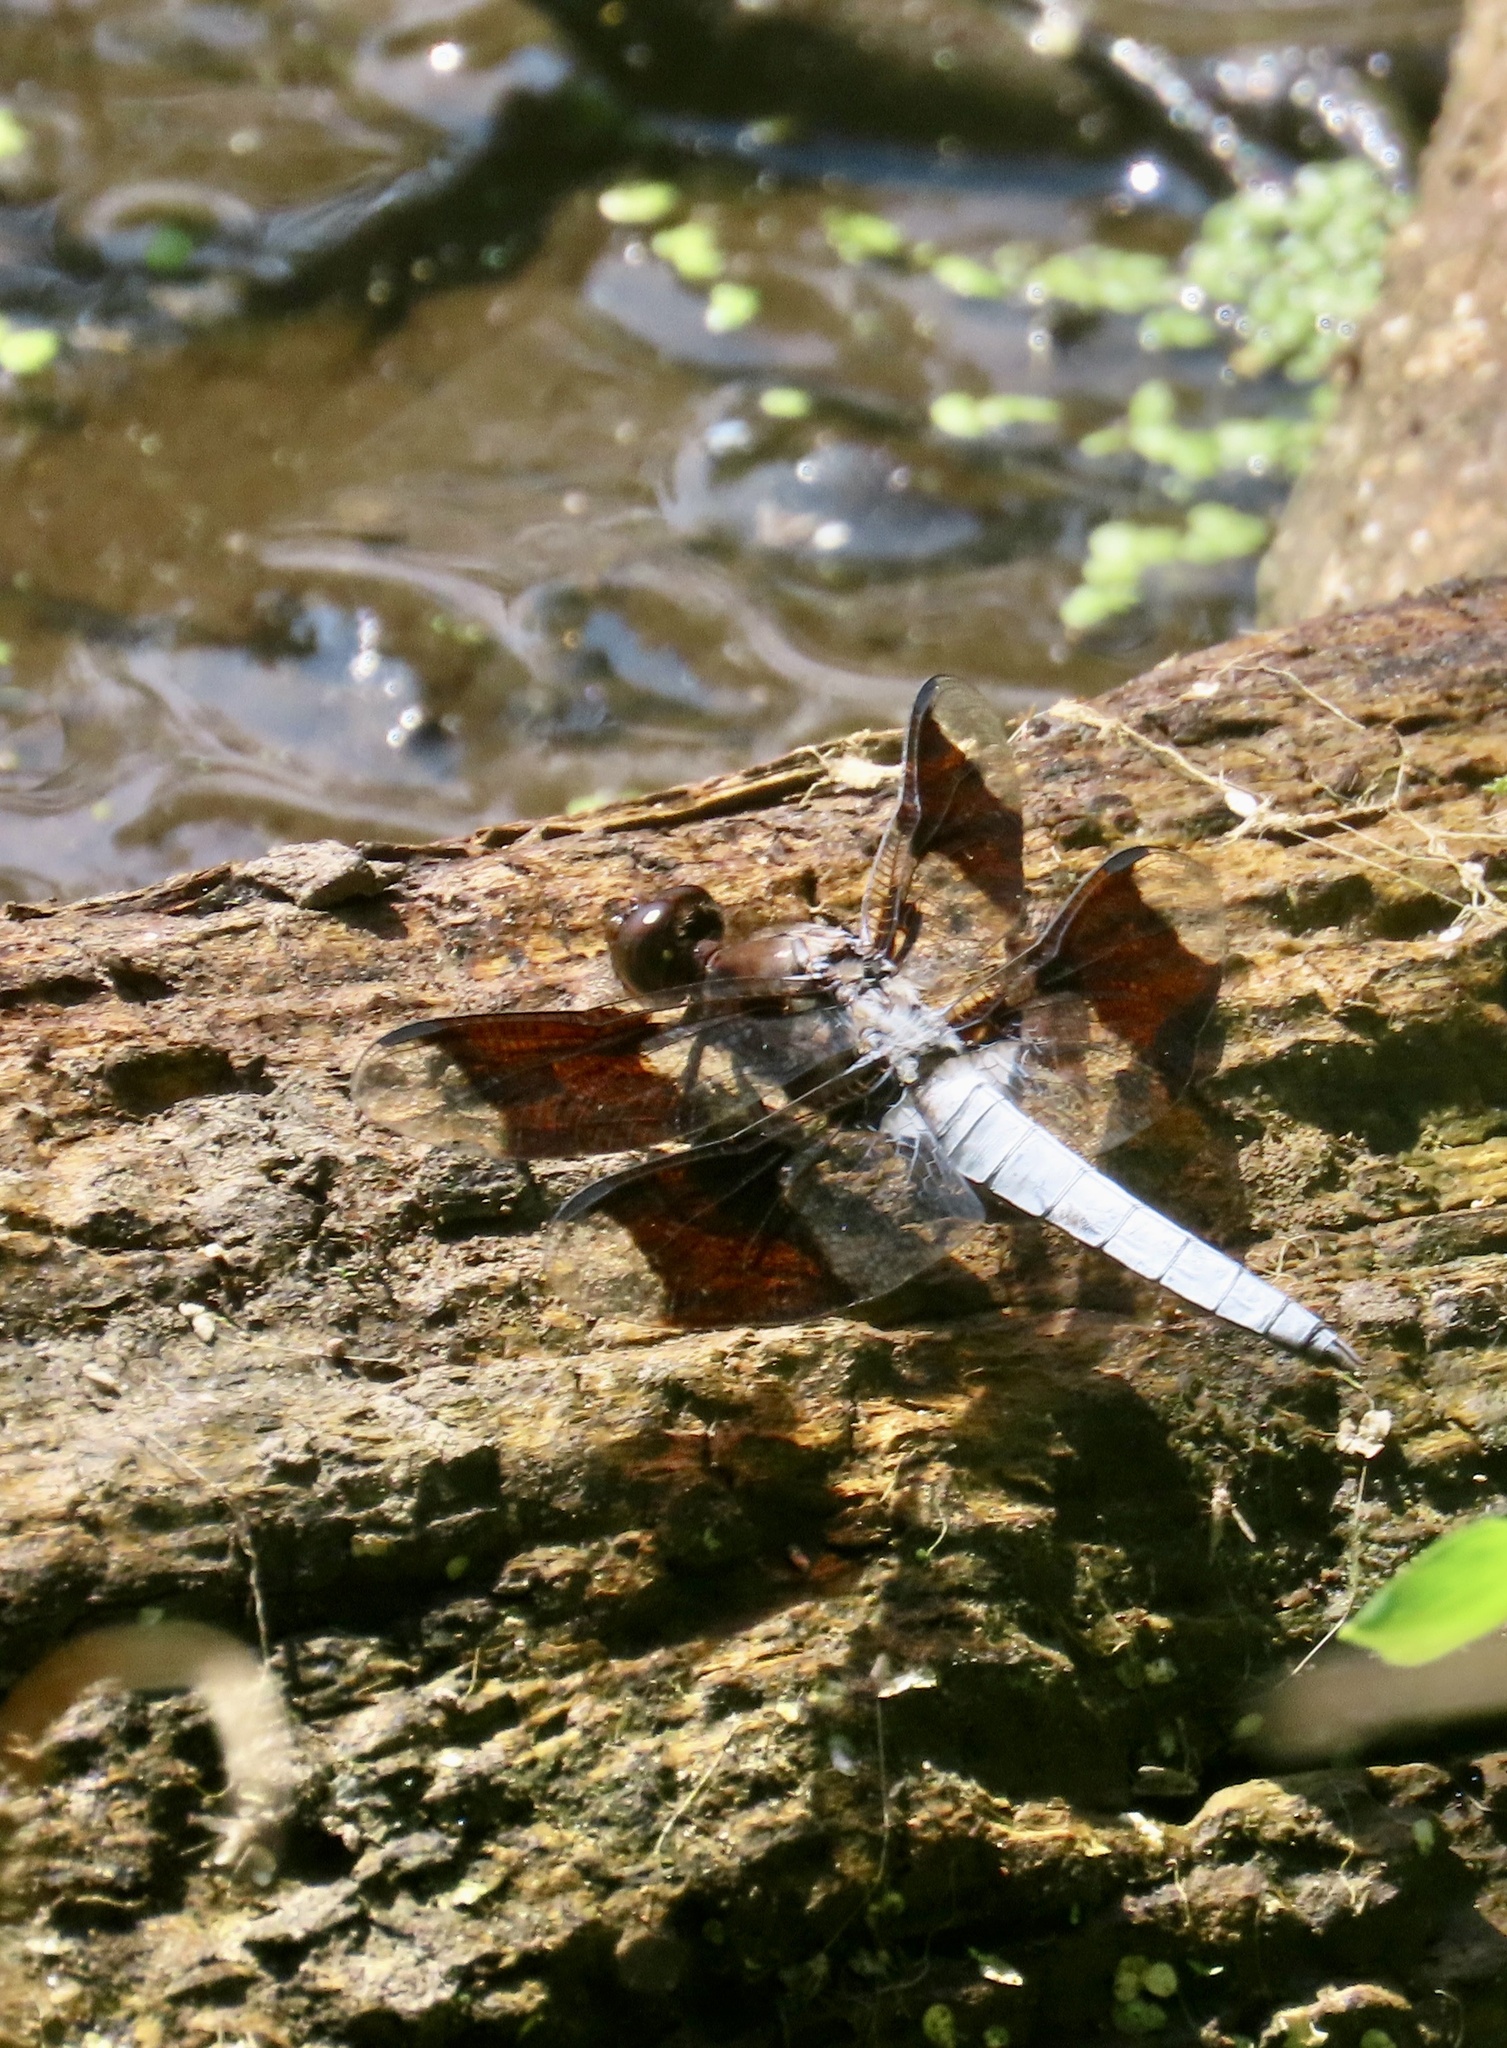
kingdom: Animalia
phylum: Arthropoda
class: Insecta
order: Odonata
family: Libellulidae
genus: Plathemis
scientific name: Plathemis lydia
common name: Common whitetail
